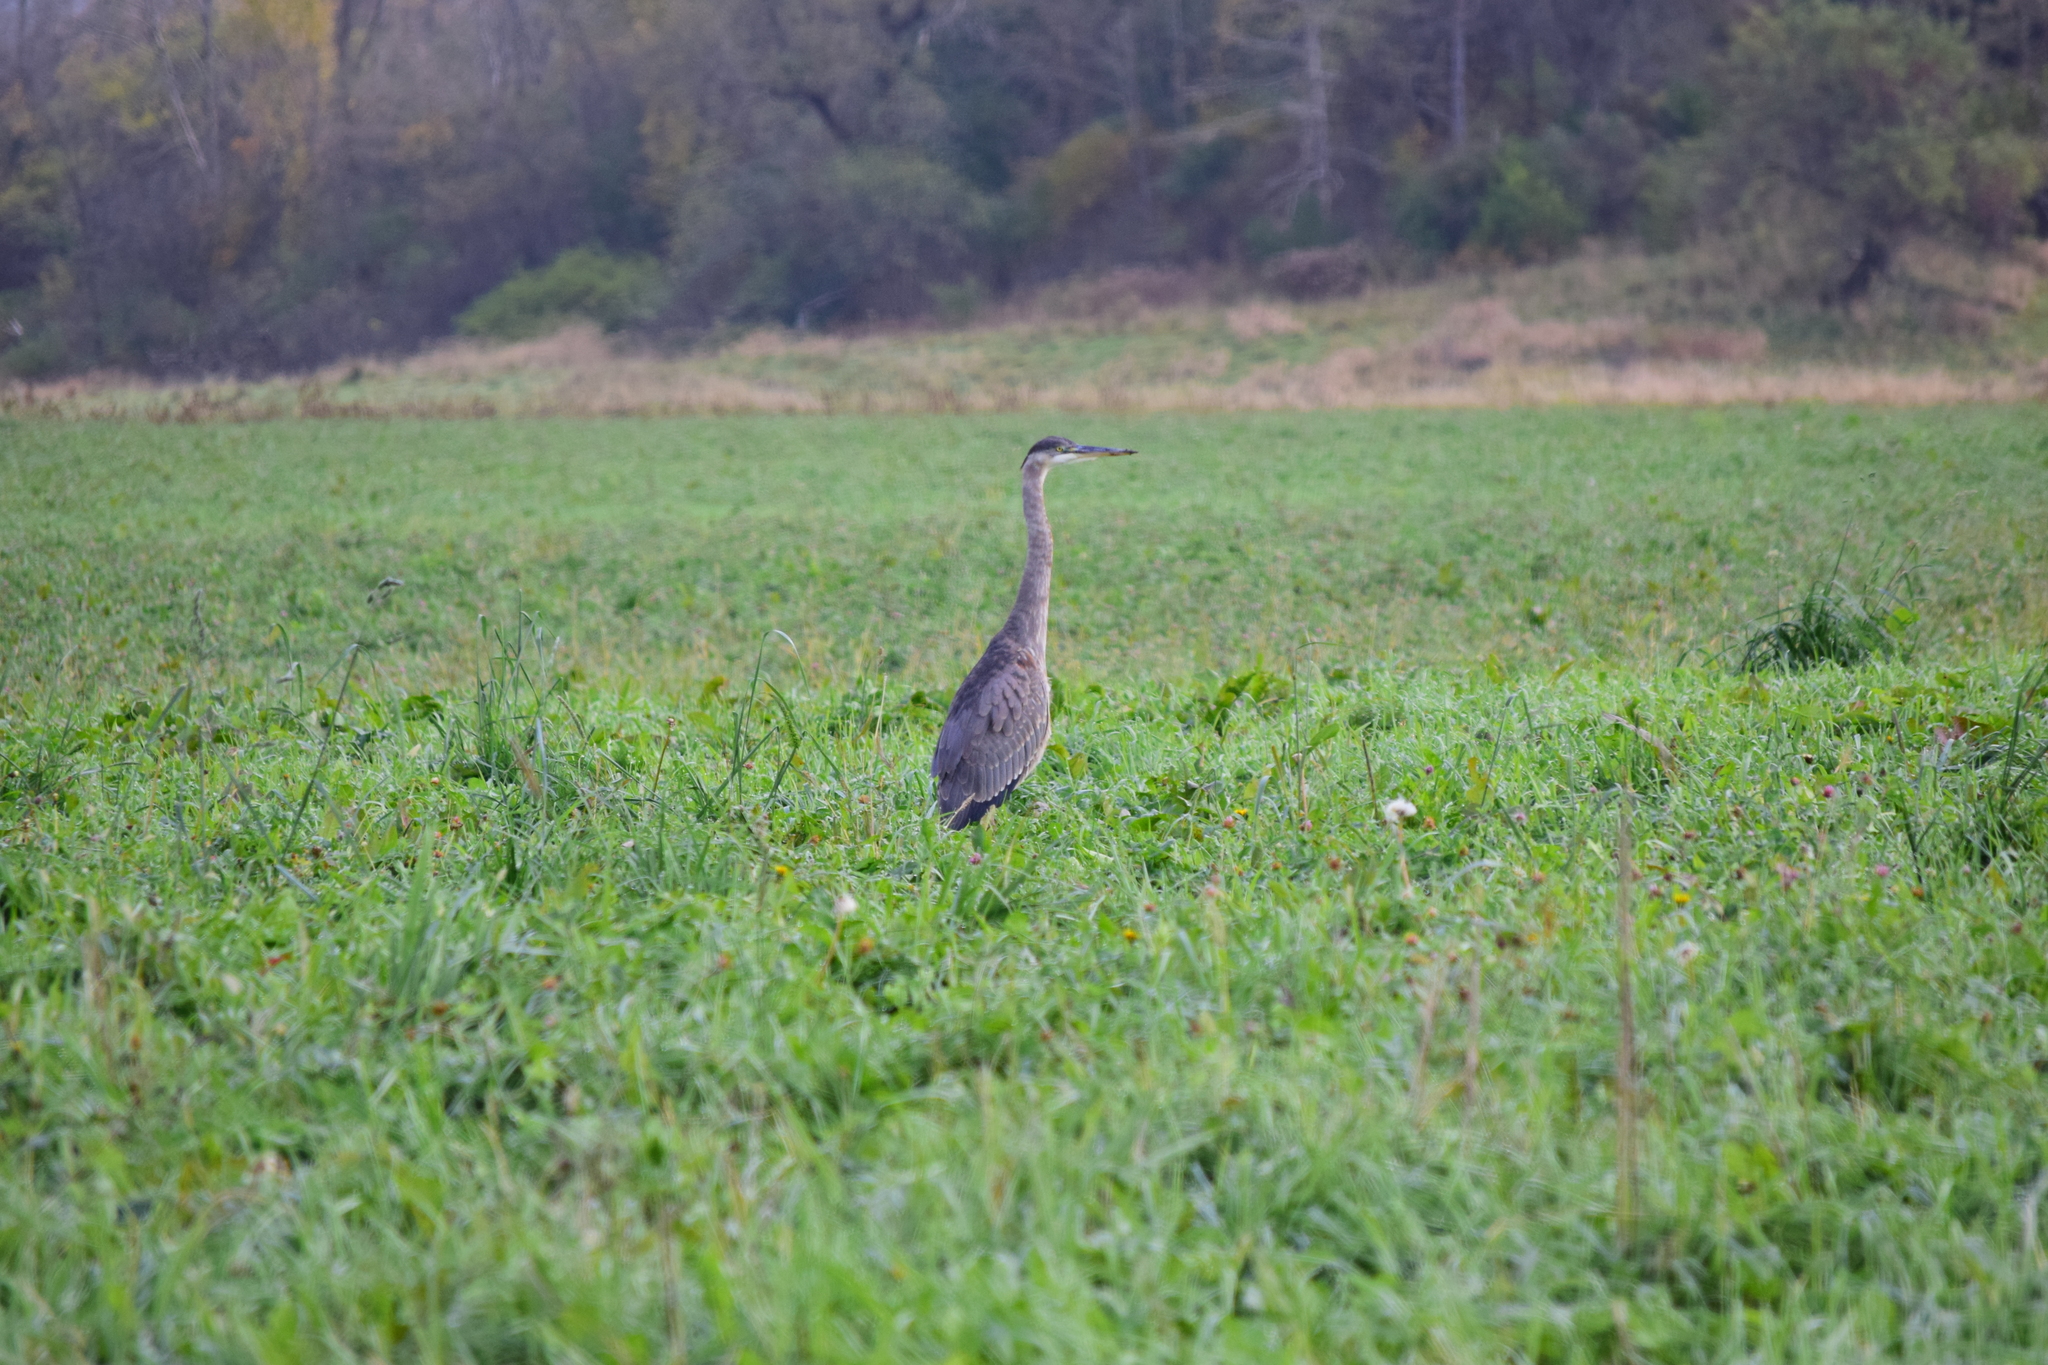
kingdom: Animalia
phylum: Chordata
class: Aves
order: Pelecaniformes
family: Ardeidae
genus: Ardea
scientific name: Ardea herodias
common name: Great blue heron
